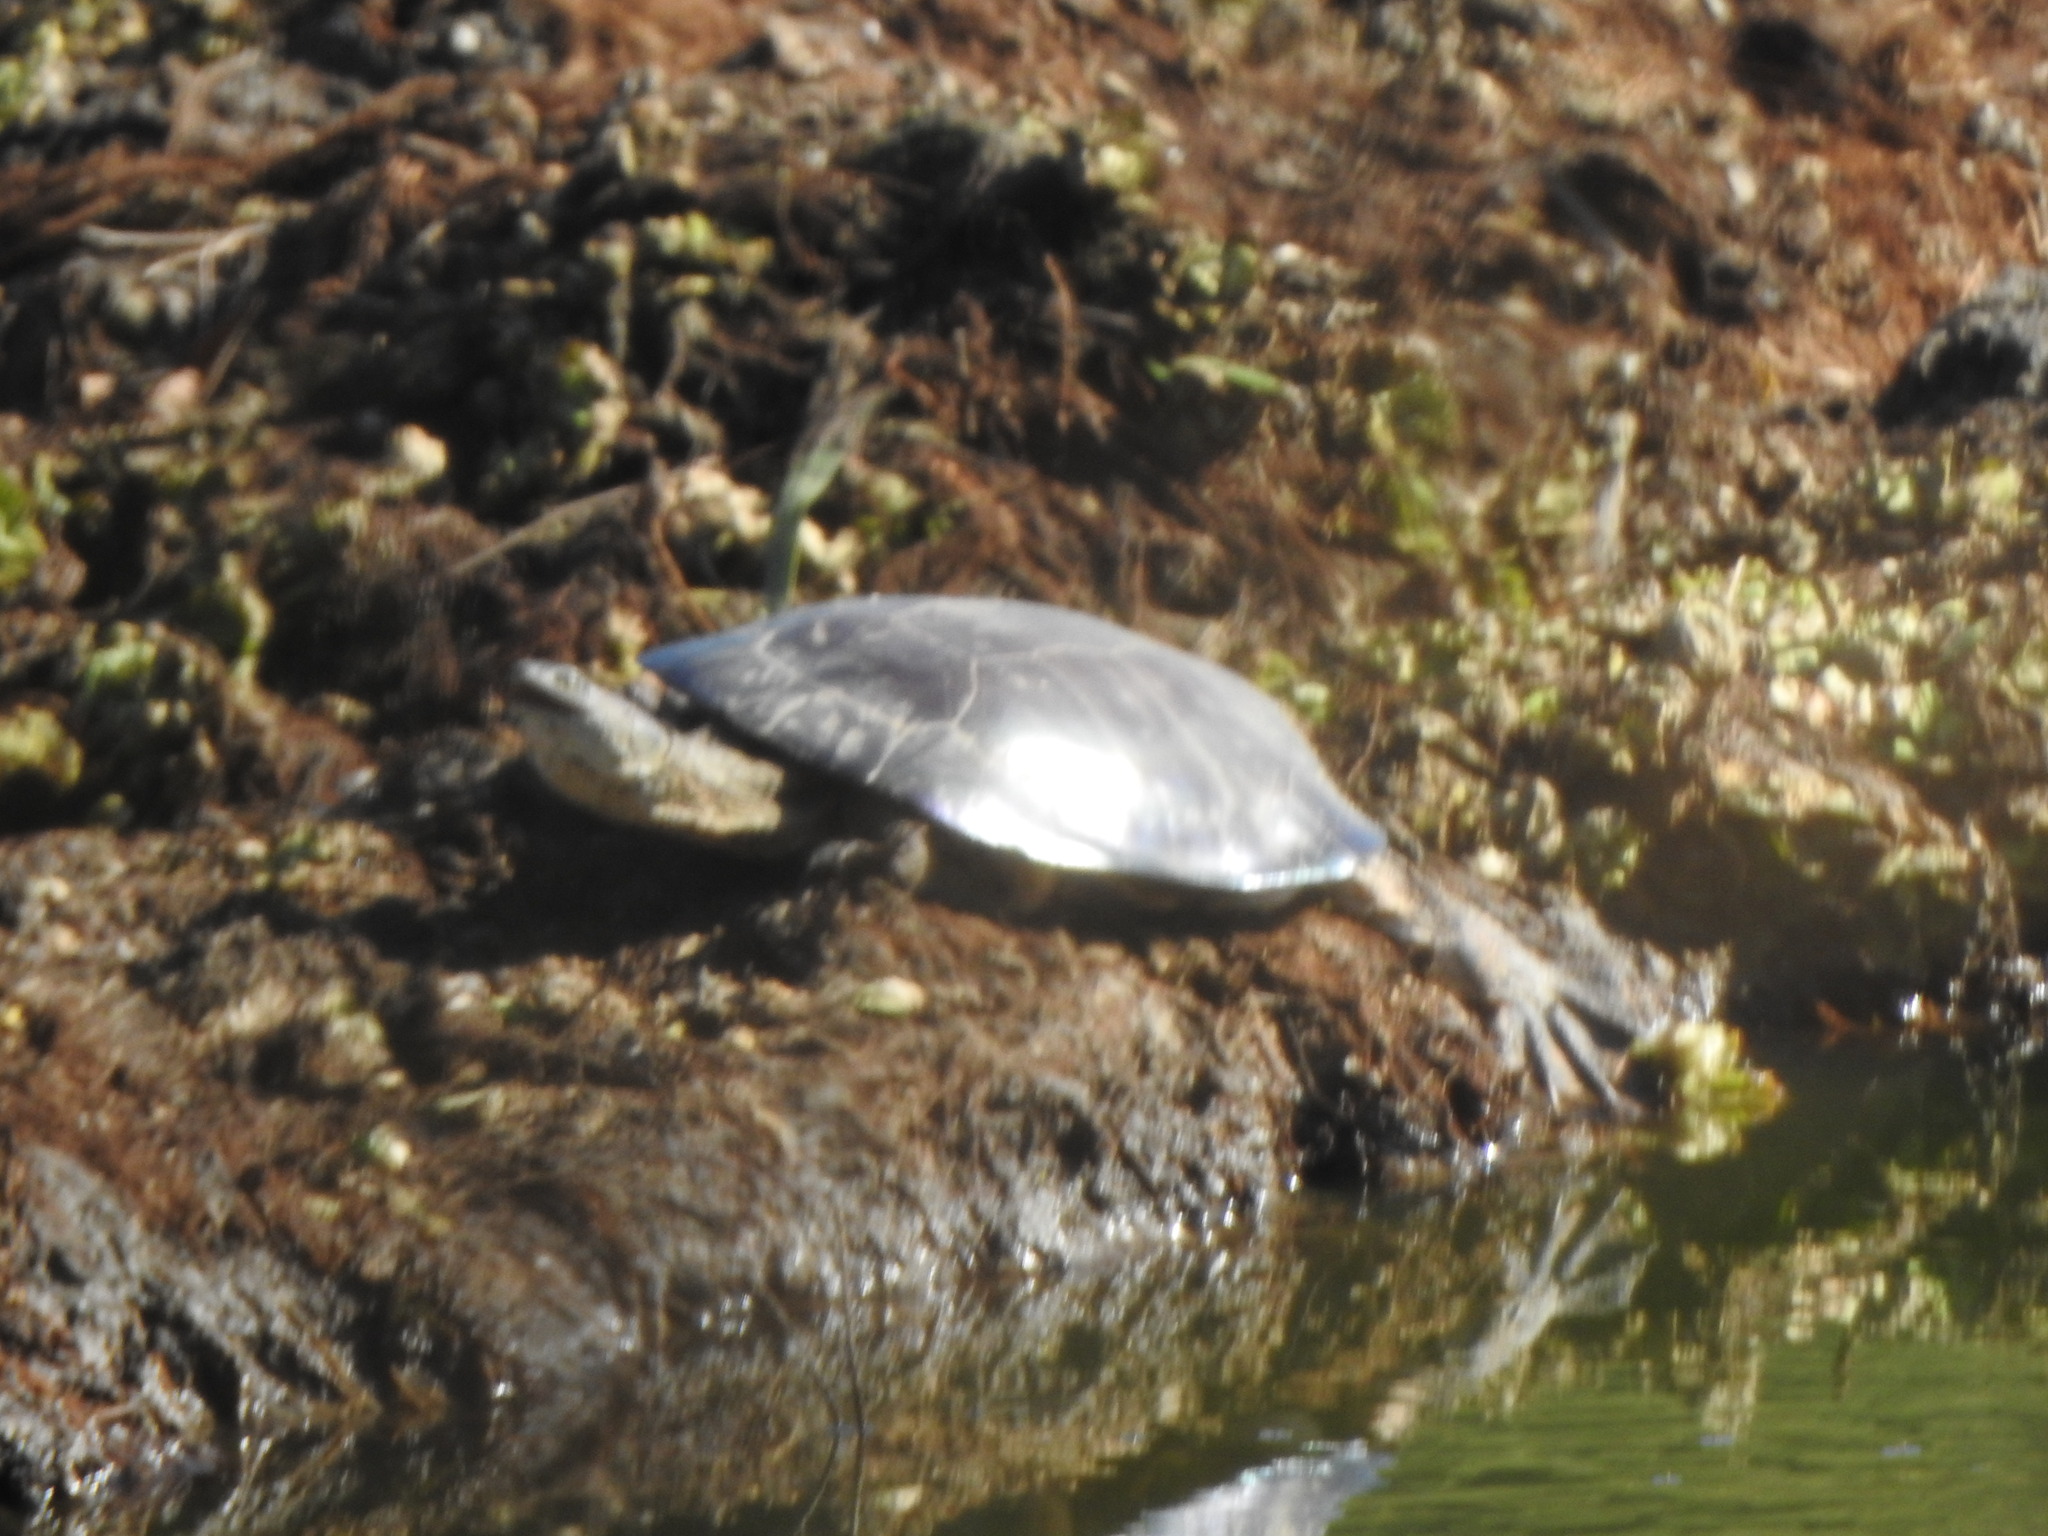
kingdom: Animalia
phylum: Chordata
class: Testudines
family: Chelidae
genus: Phrynops
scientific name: Phrynops hilarii
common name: Side-necked turtle of saint hillaire
